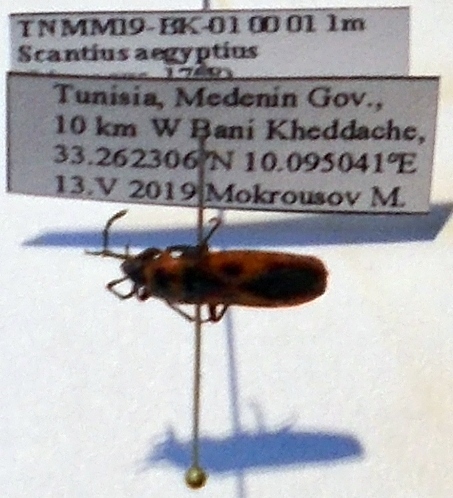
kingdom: Animalia
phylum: Arthropoda
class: Insecta
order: Hemiptera
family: Pyrrhocoridae
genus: Scantius
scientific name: Scantius aegyptius
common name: Red bug
